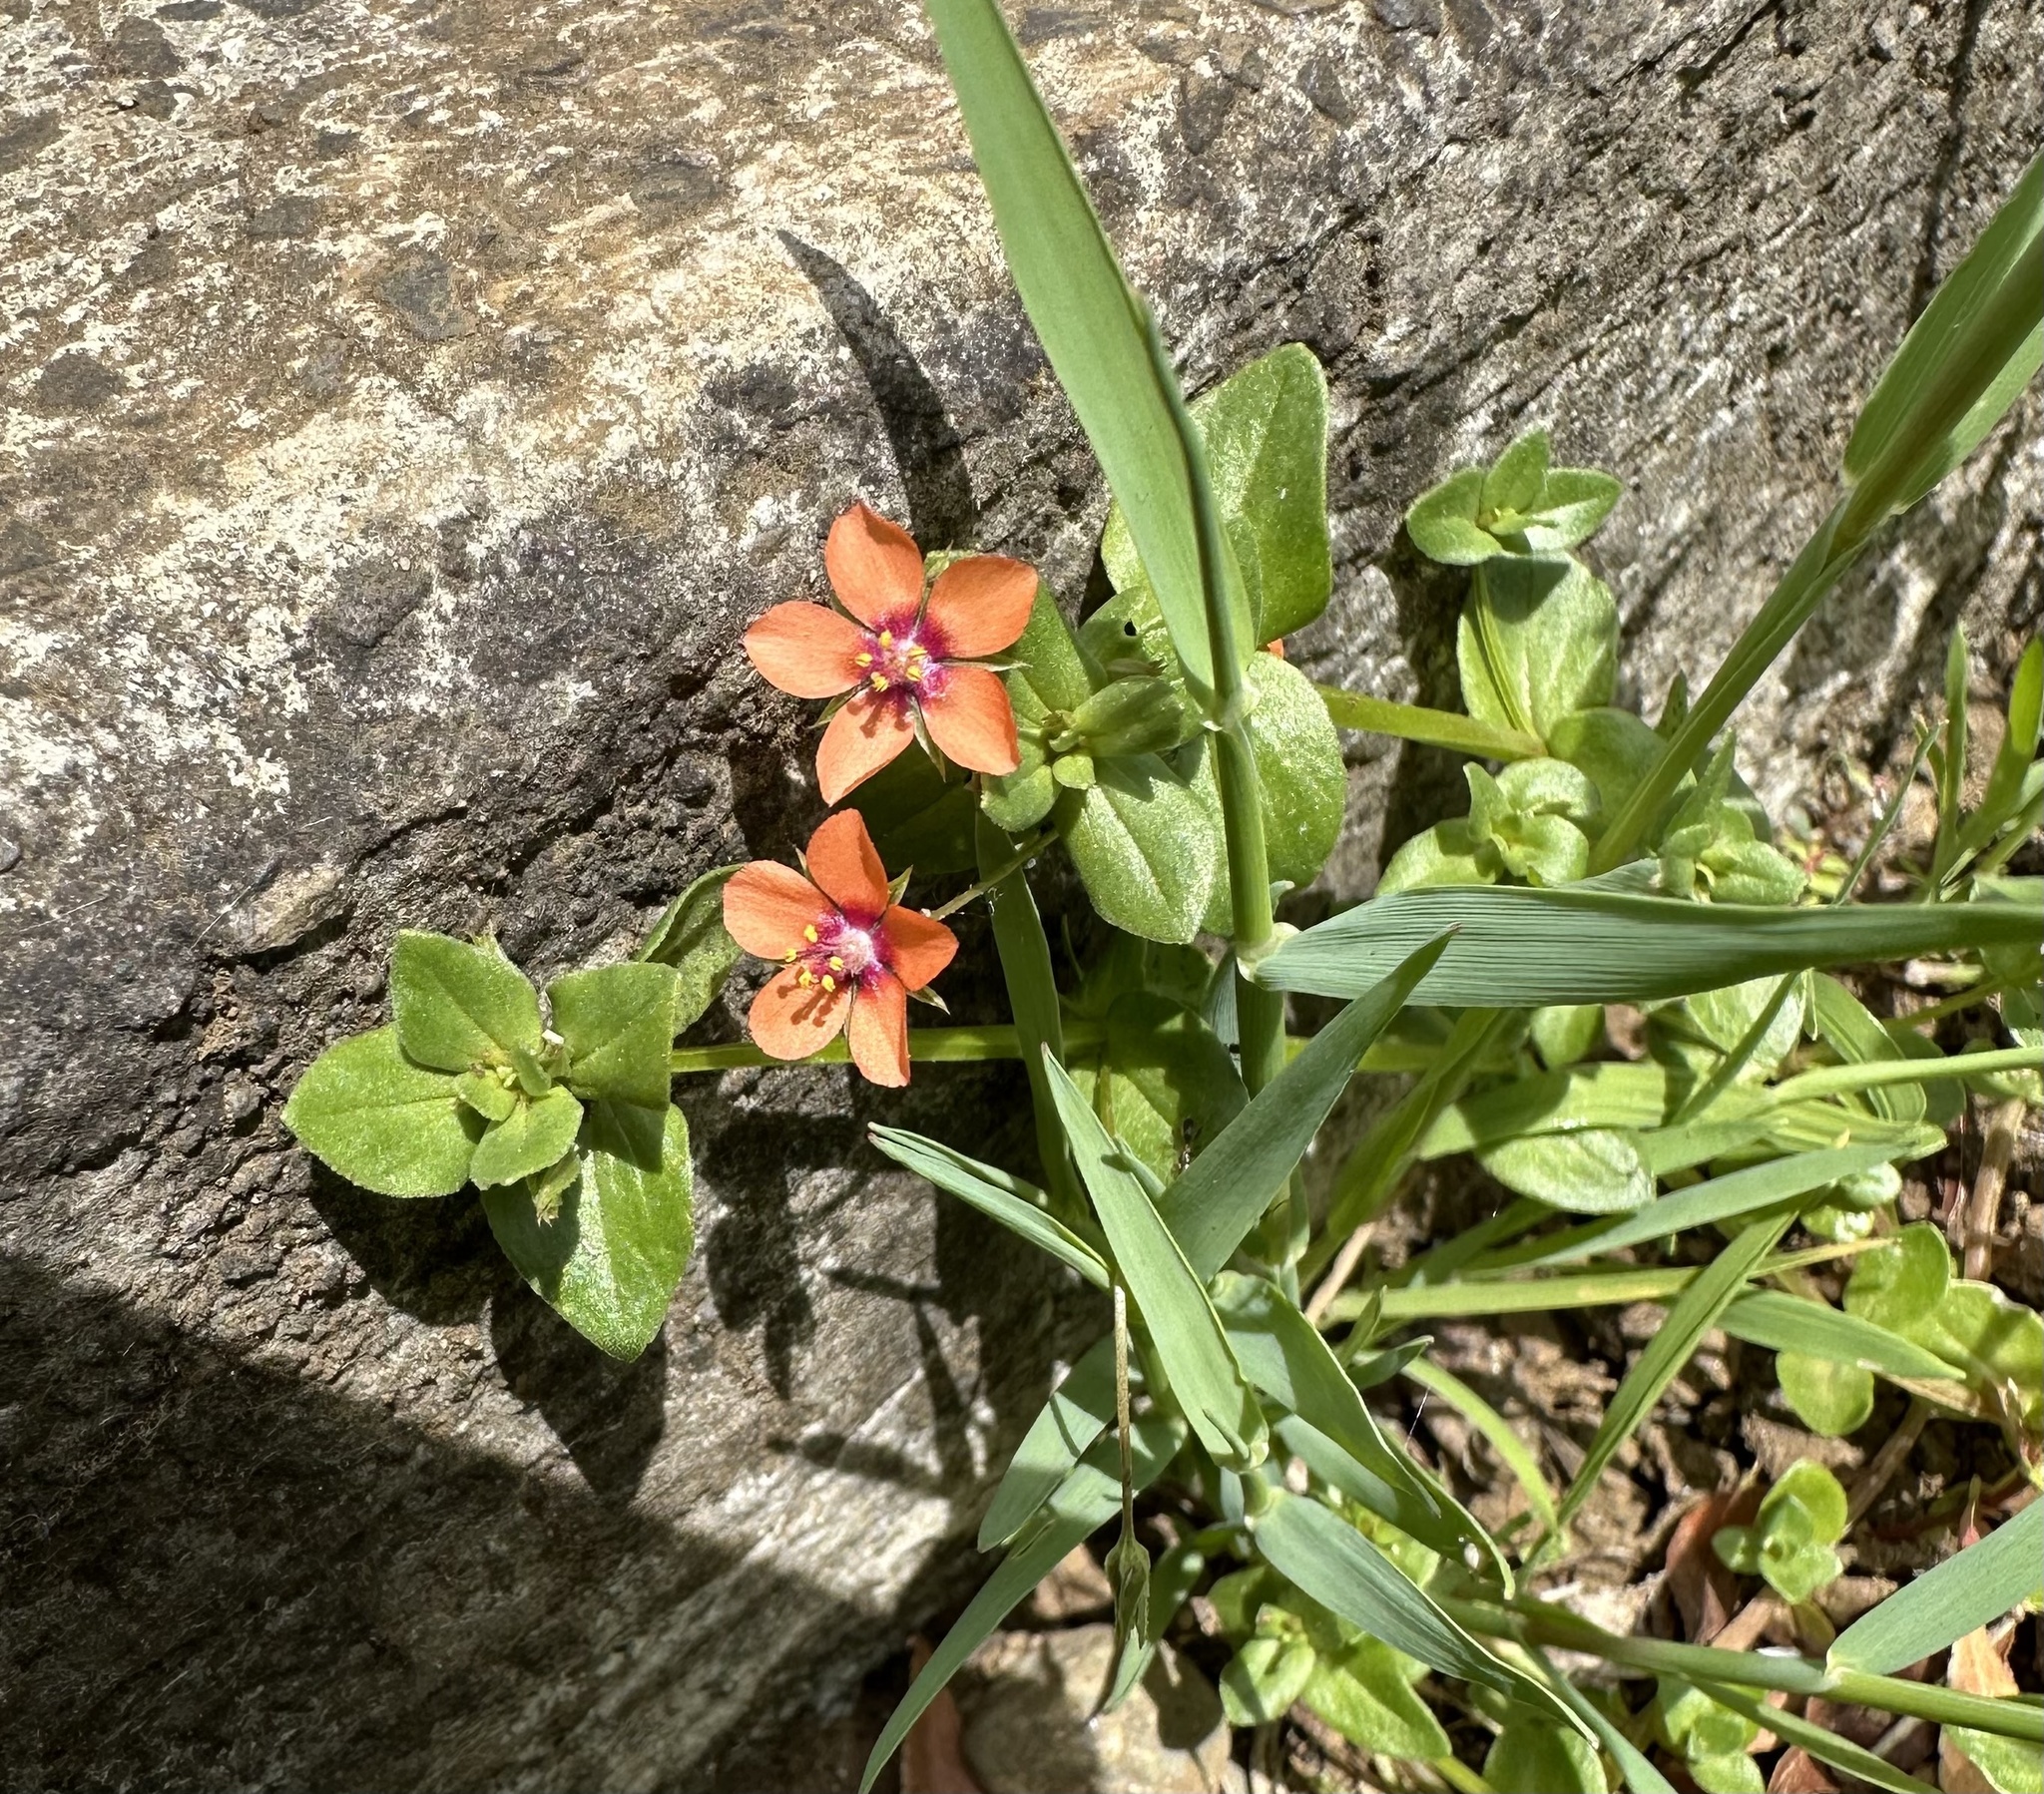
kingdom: Plantae
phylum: Tracheophyta
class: Magnoliopsida
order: Ericales
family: Primulaceae
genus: Lysimachia
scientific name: Lysimachia arvensis
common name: Scarlet pimpernel
